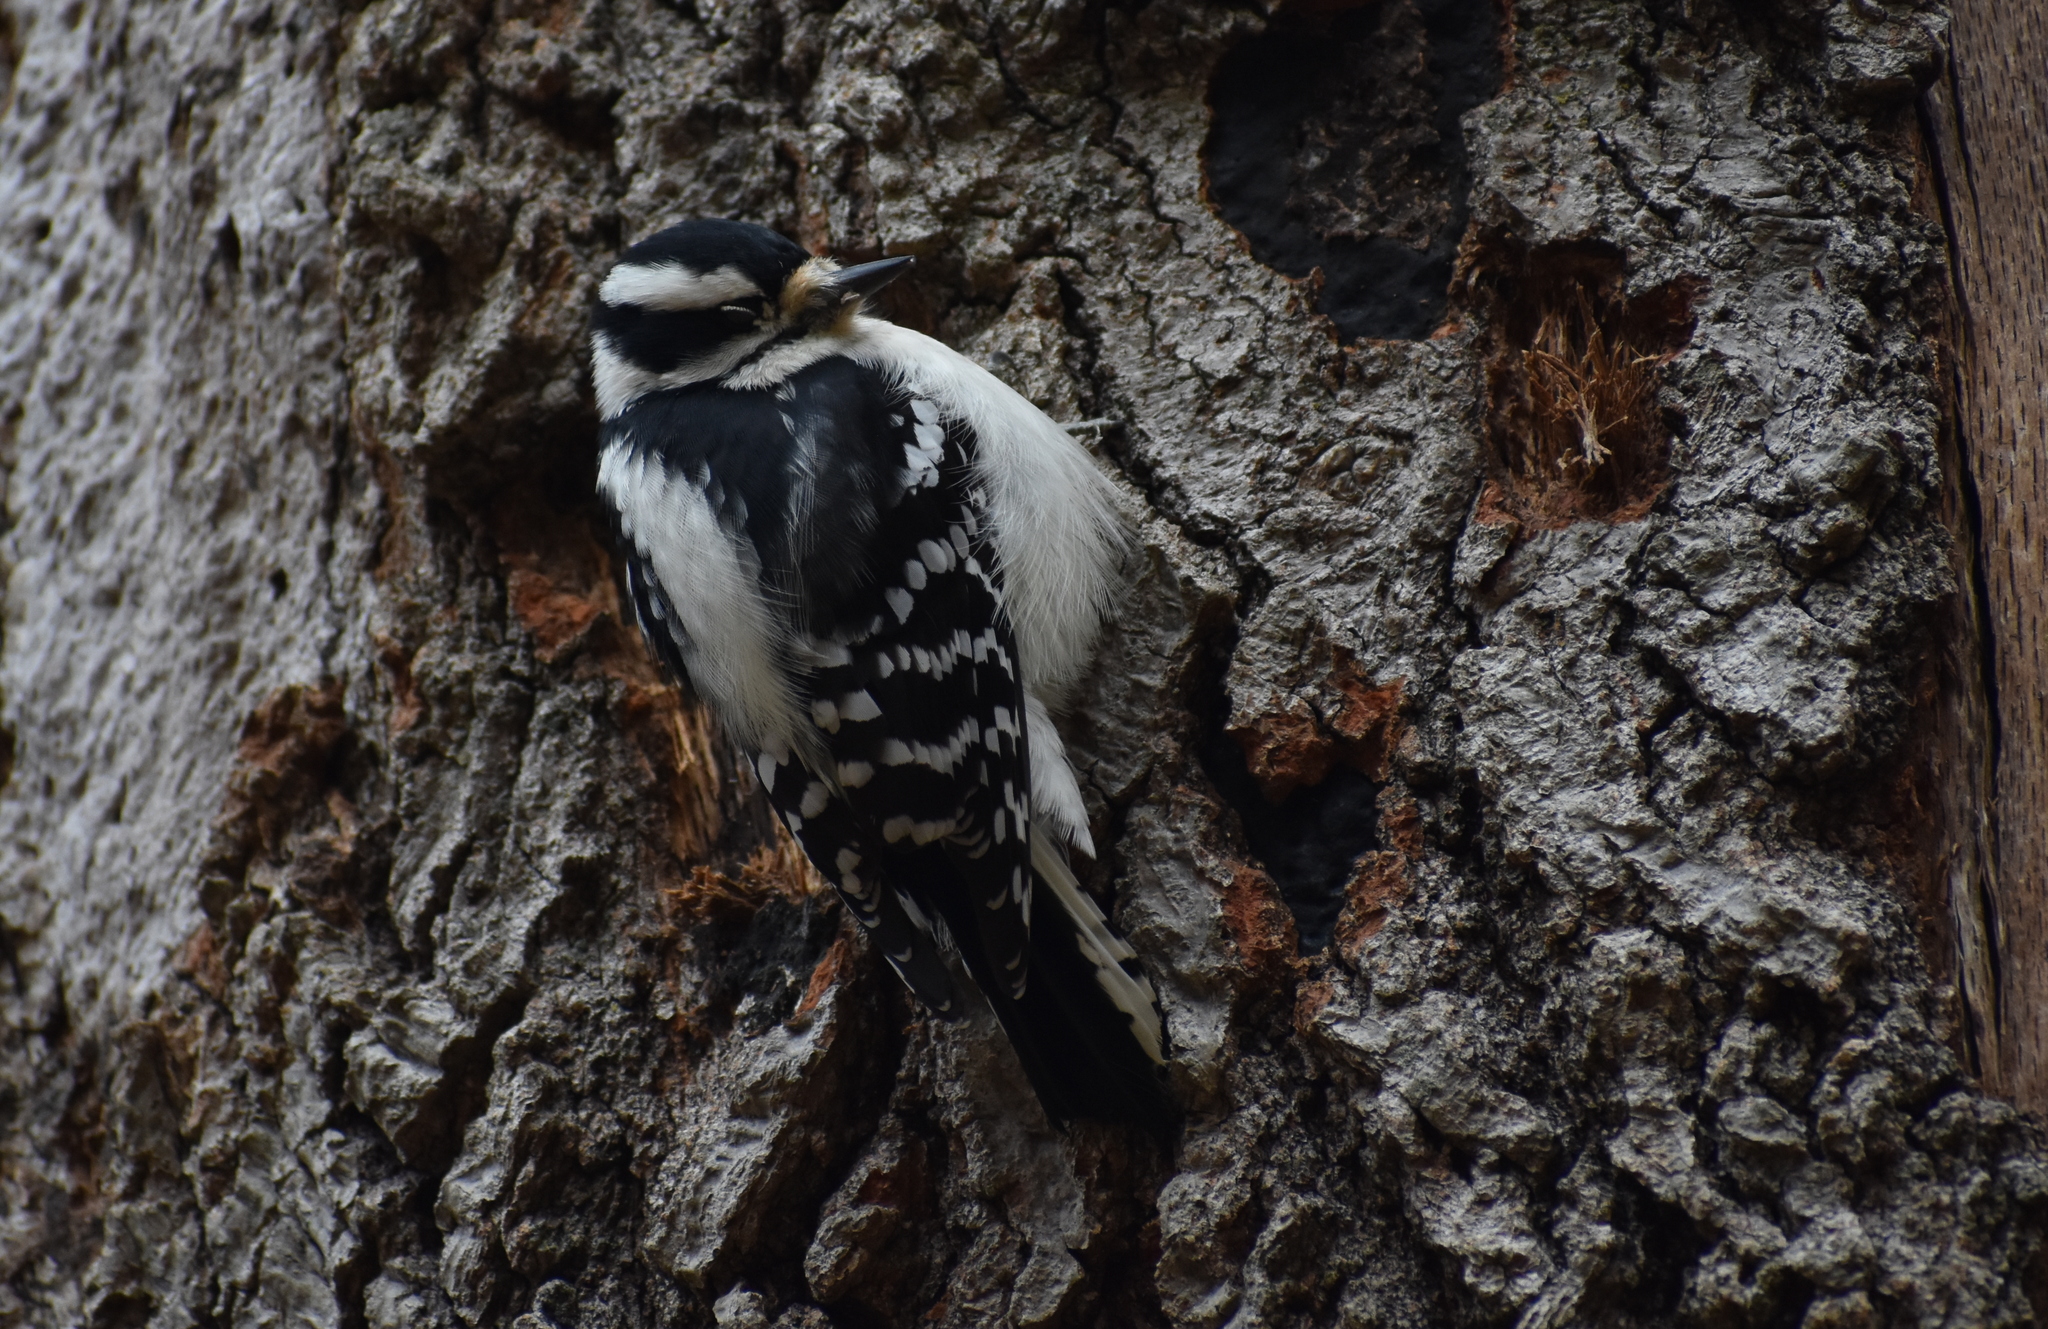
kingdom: Animalia
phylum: Chordata
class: Aves
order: Piciformes
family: Picidae
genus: Dryobates
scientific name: Dryobates pubescens
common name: Downy woodpecker
